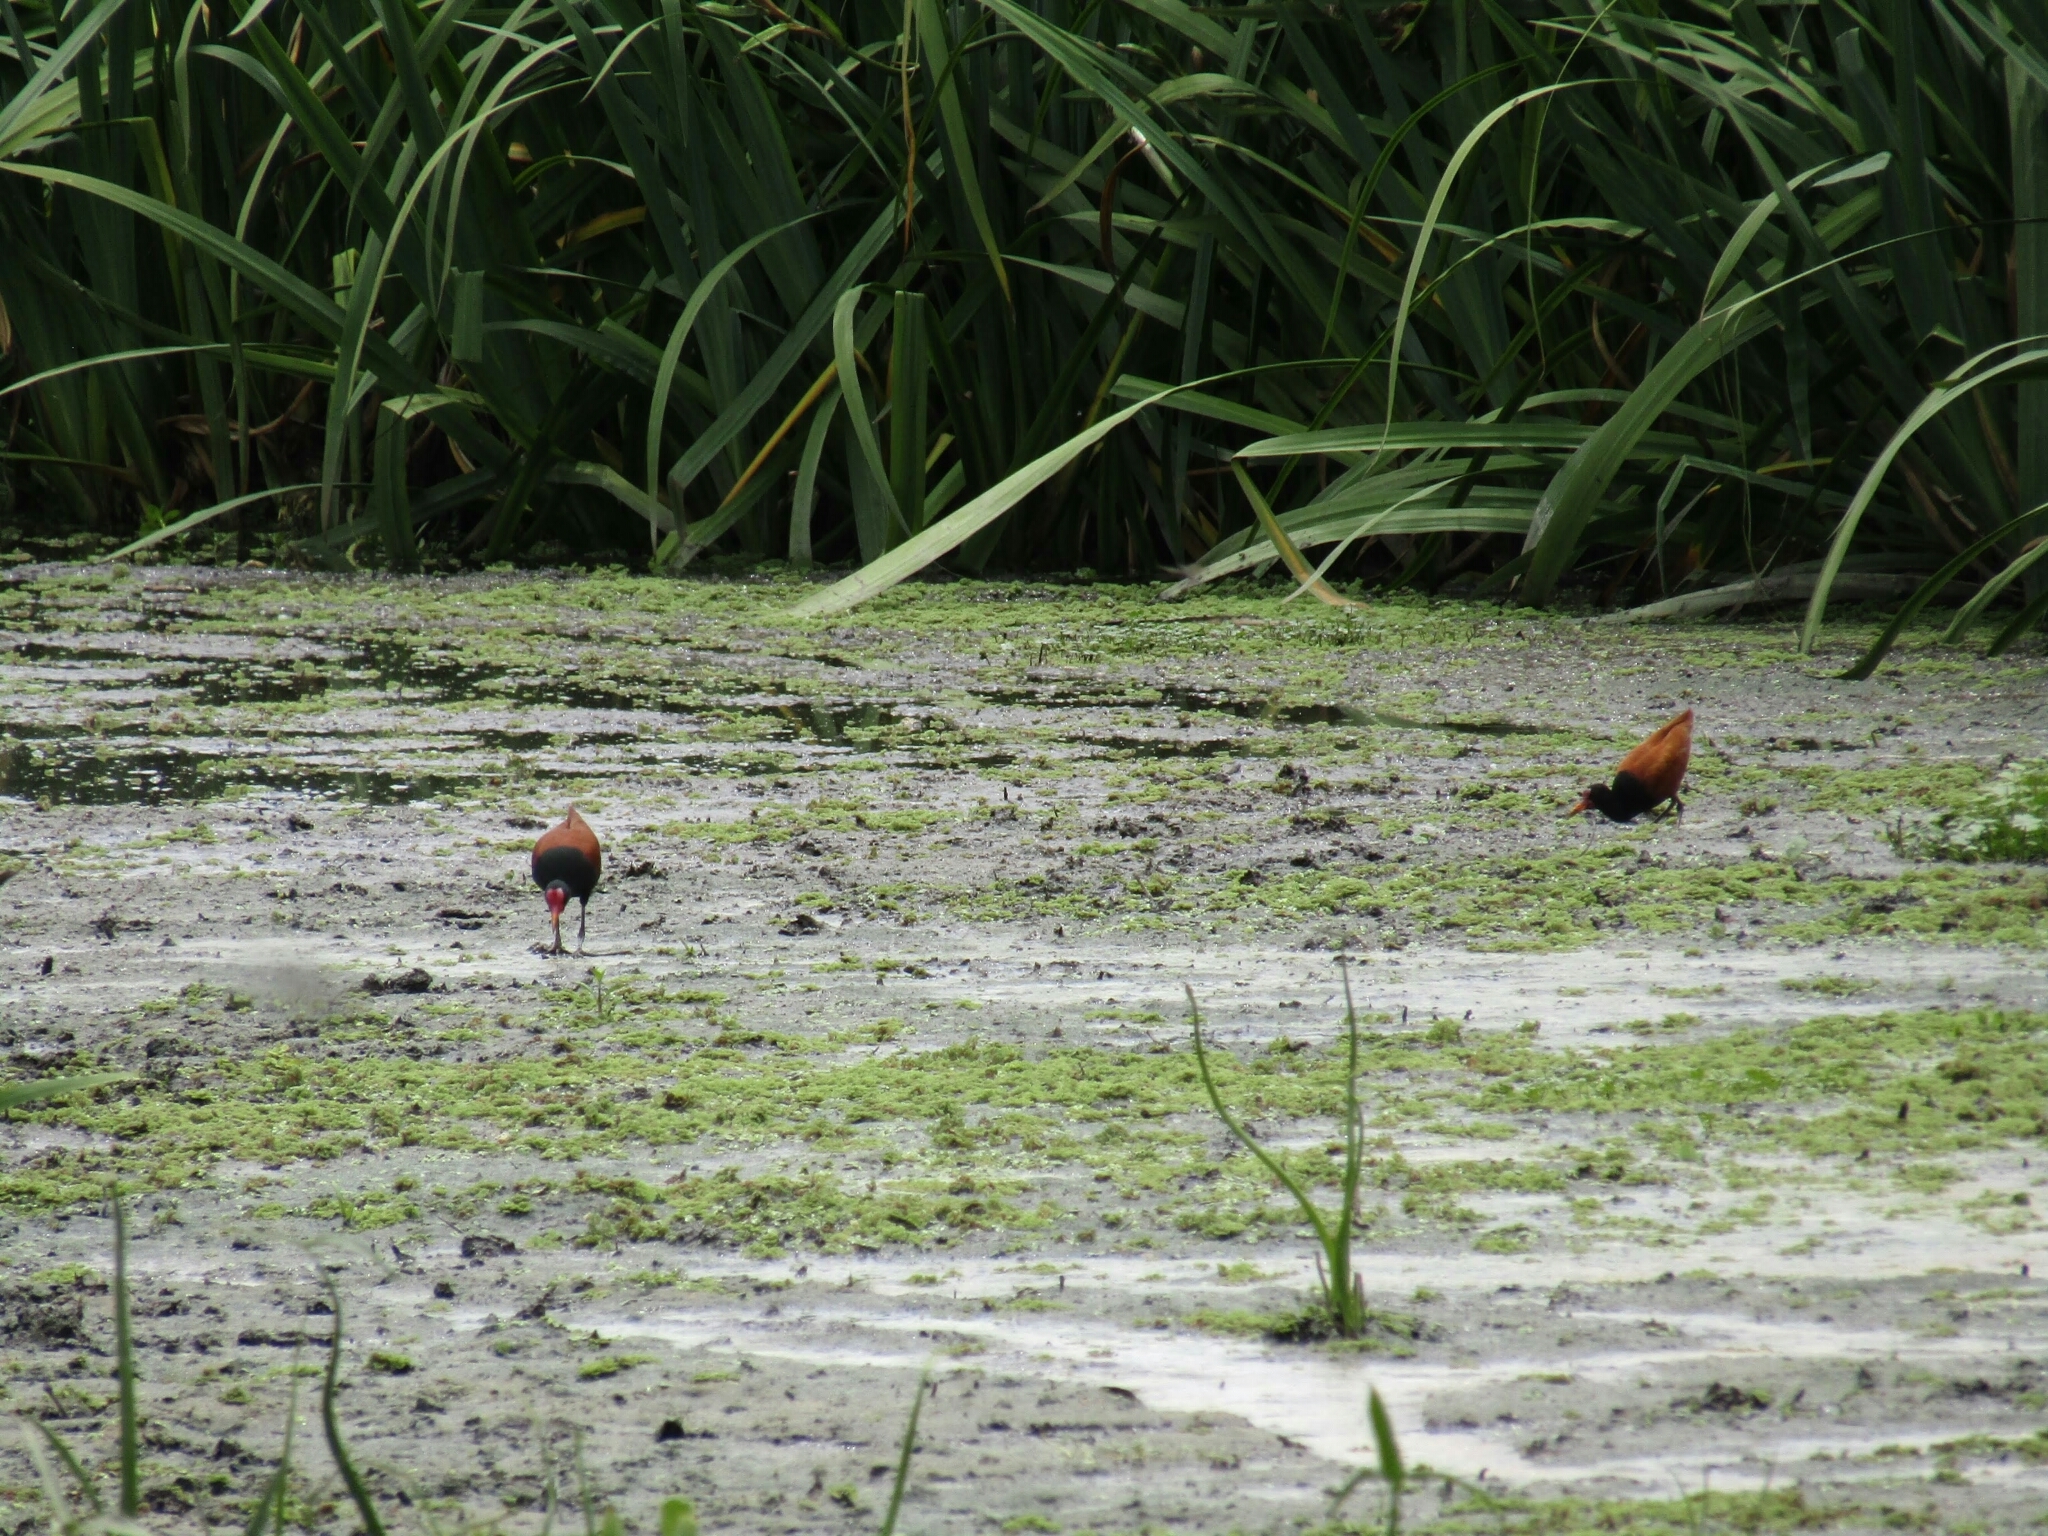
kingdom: Animalia
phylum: Chordata
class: Aves
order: Charadriiformes
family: Jacanidae
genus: Jacana
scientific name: Jacana jacana
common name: Wattled jacana
